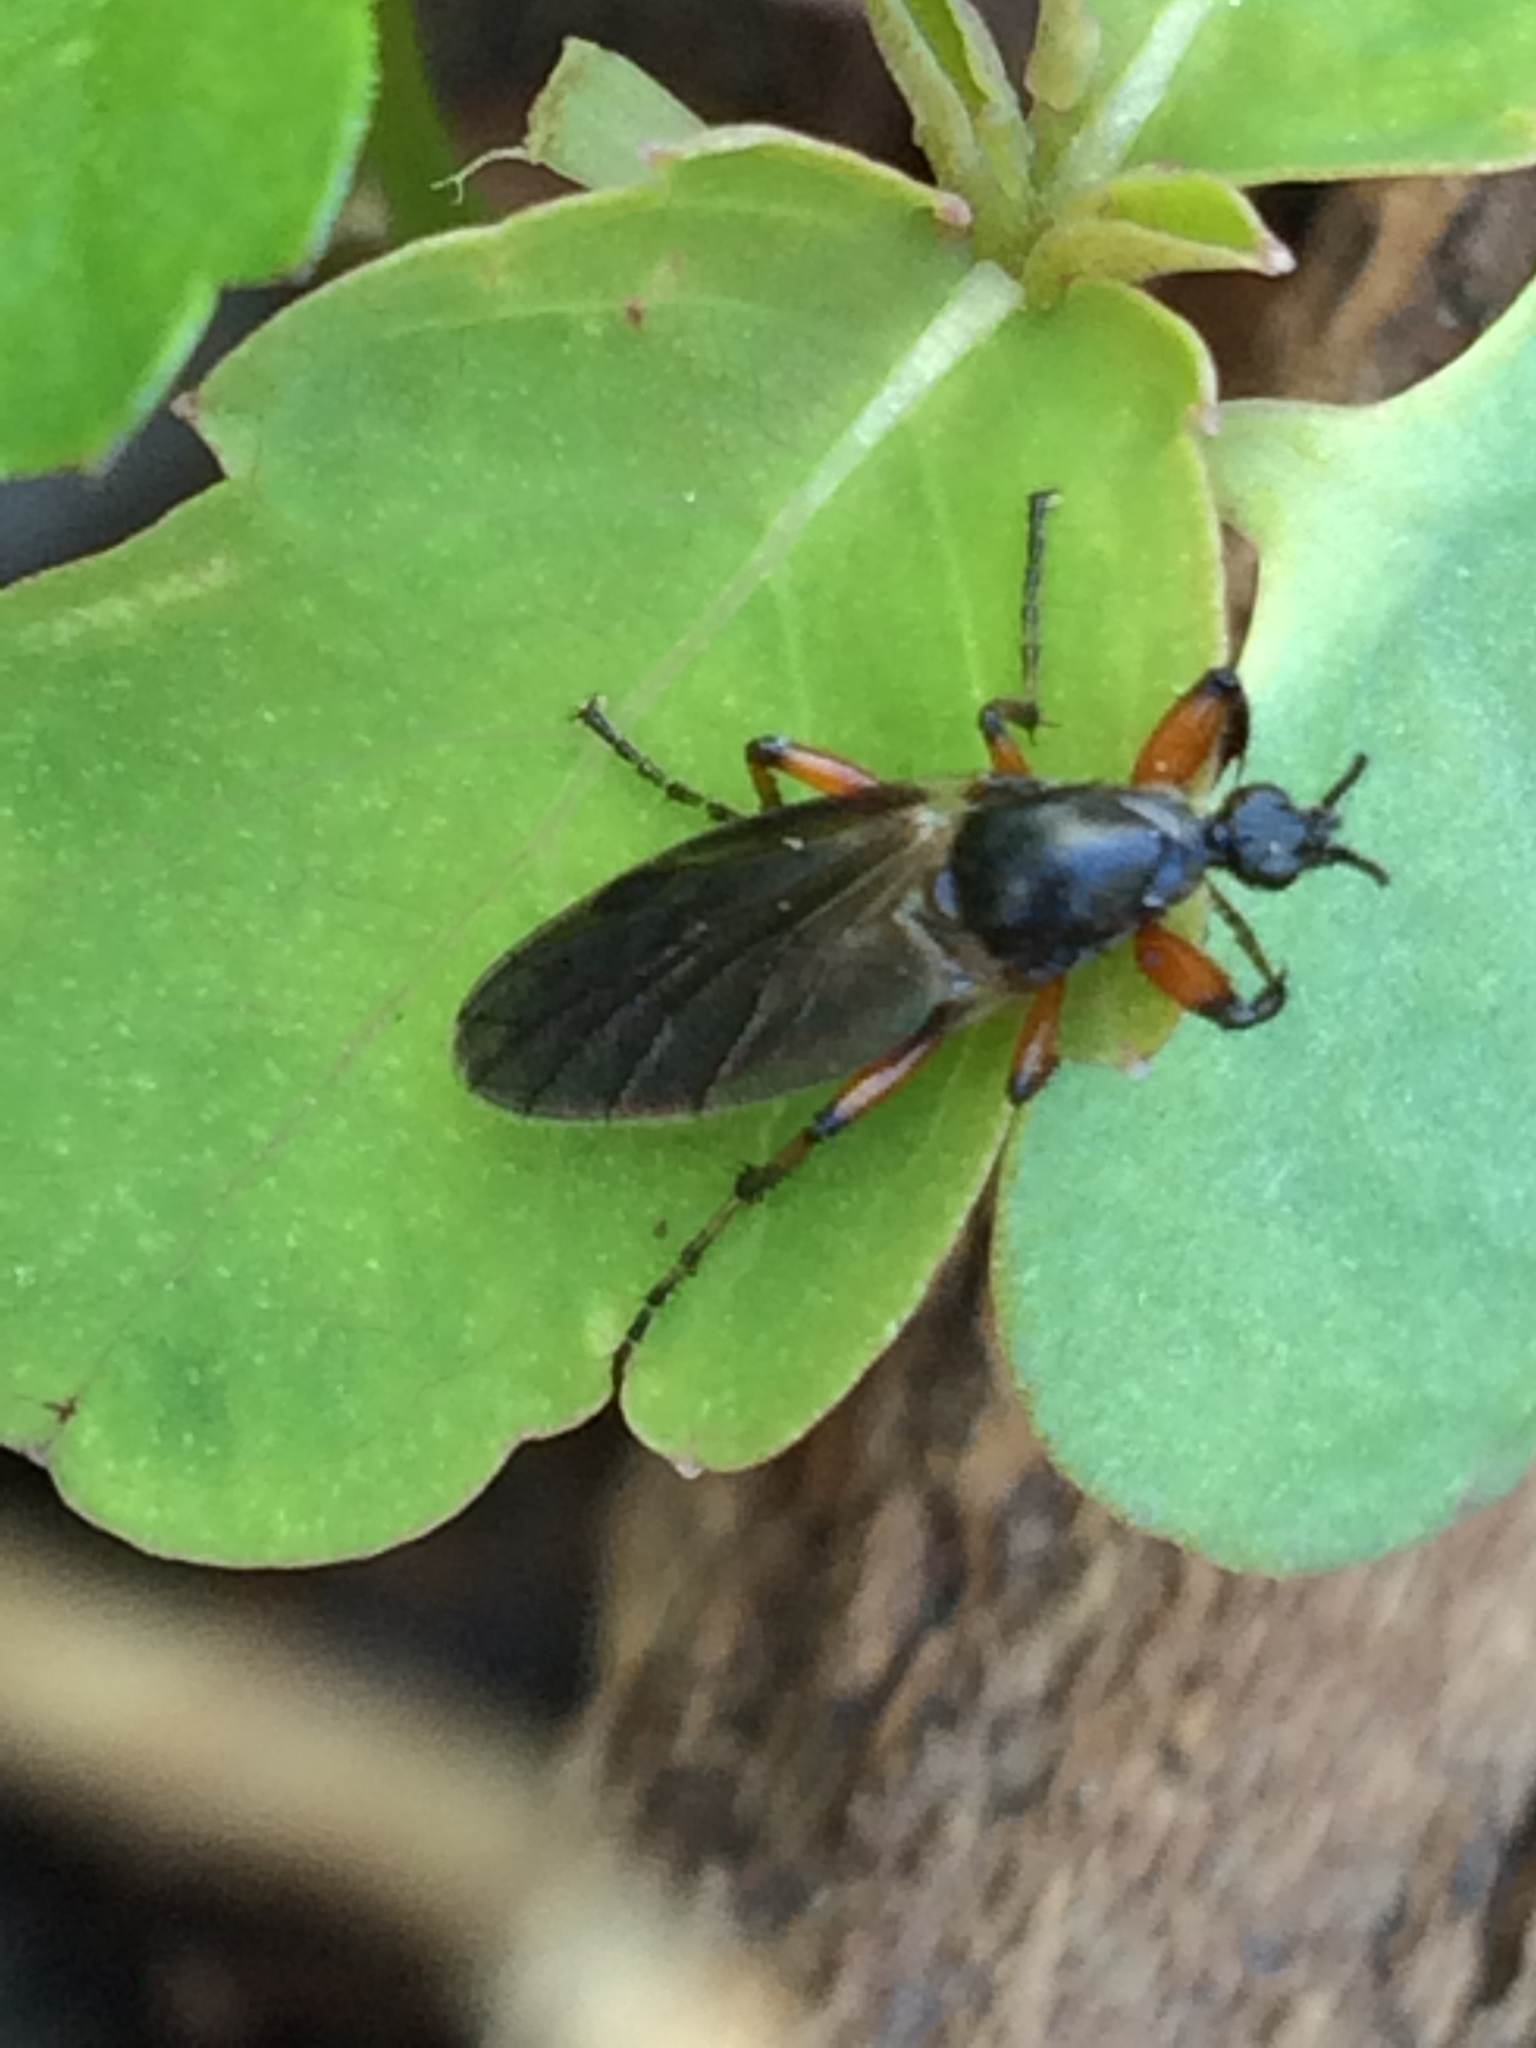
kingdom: Animalia
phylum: Arthropoda
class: Insecta
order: Diptera
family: Bibionidae
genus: Bibio
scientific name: Bibio
